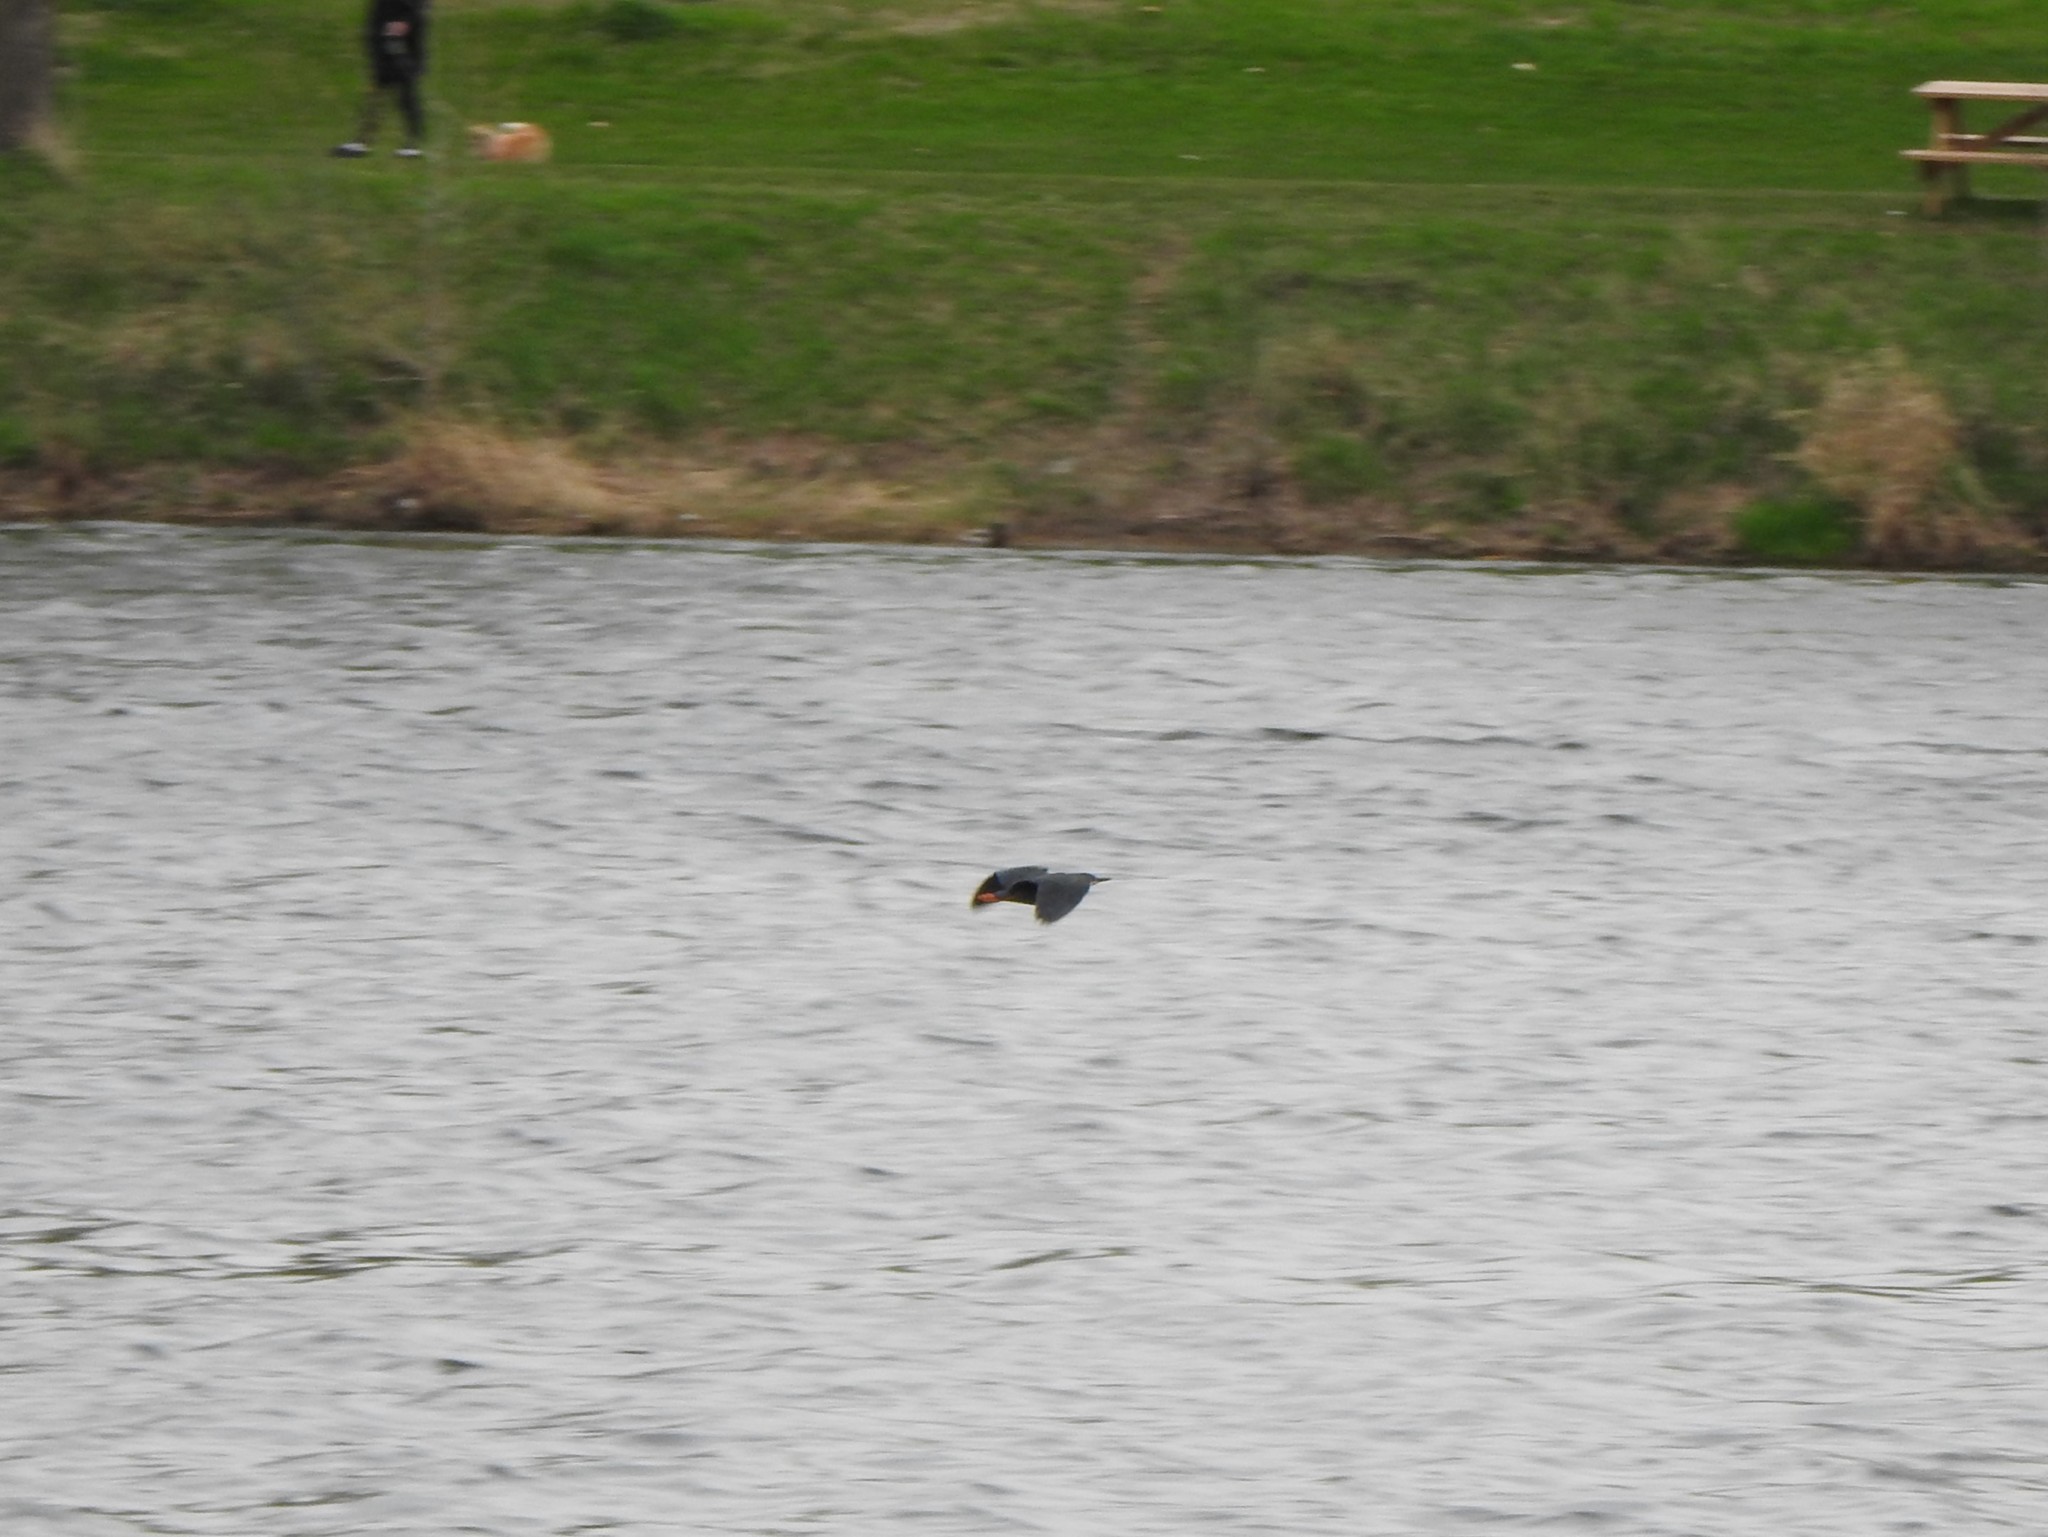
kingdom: Animalia
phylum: Chordata
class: Aves
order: Pelecaniformes
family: Ardeidae
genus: Butorides
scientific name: Butorides virescens
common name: Green heron
